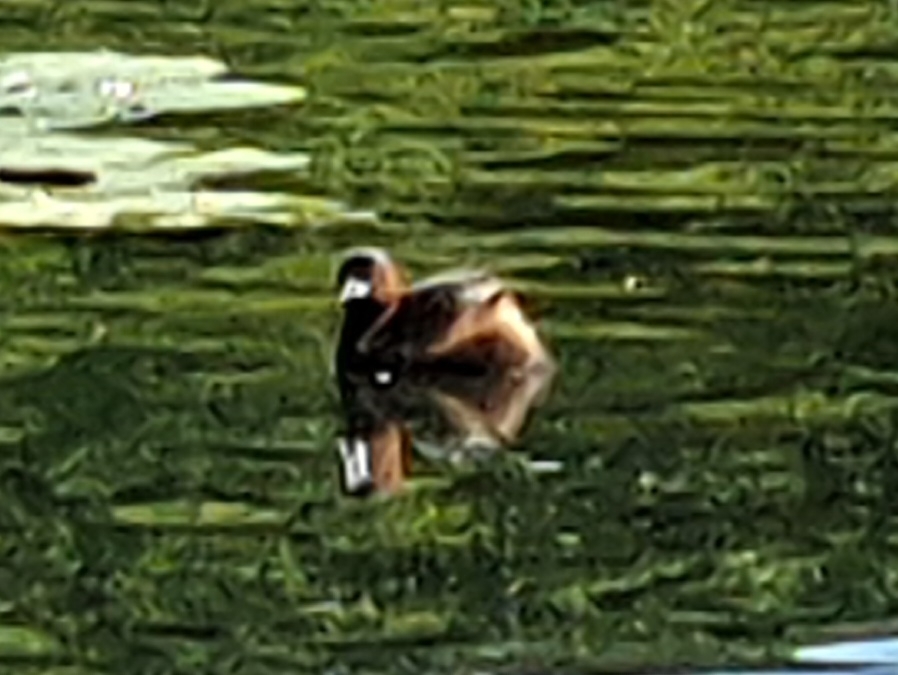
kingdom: Animalia
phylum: Chordata
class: Aves
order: Podicipediformes
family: Podicipedidae
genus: Tachybaptus
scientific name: Tachybaptus ruficollis
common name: Little grebe
